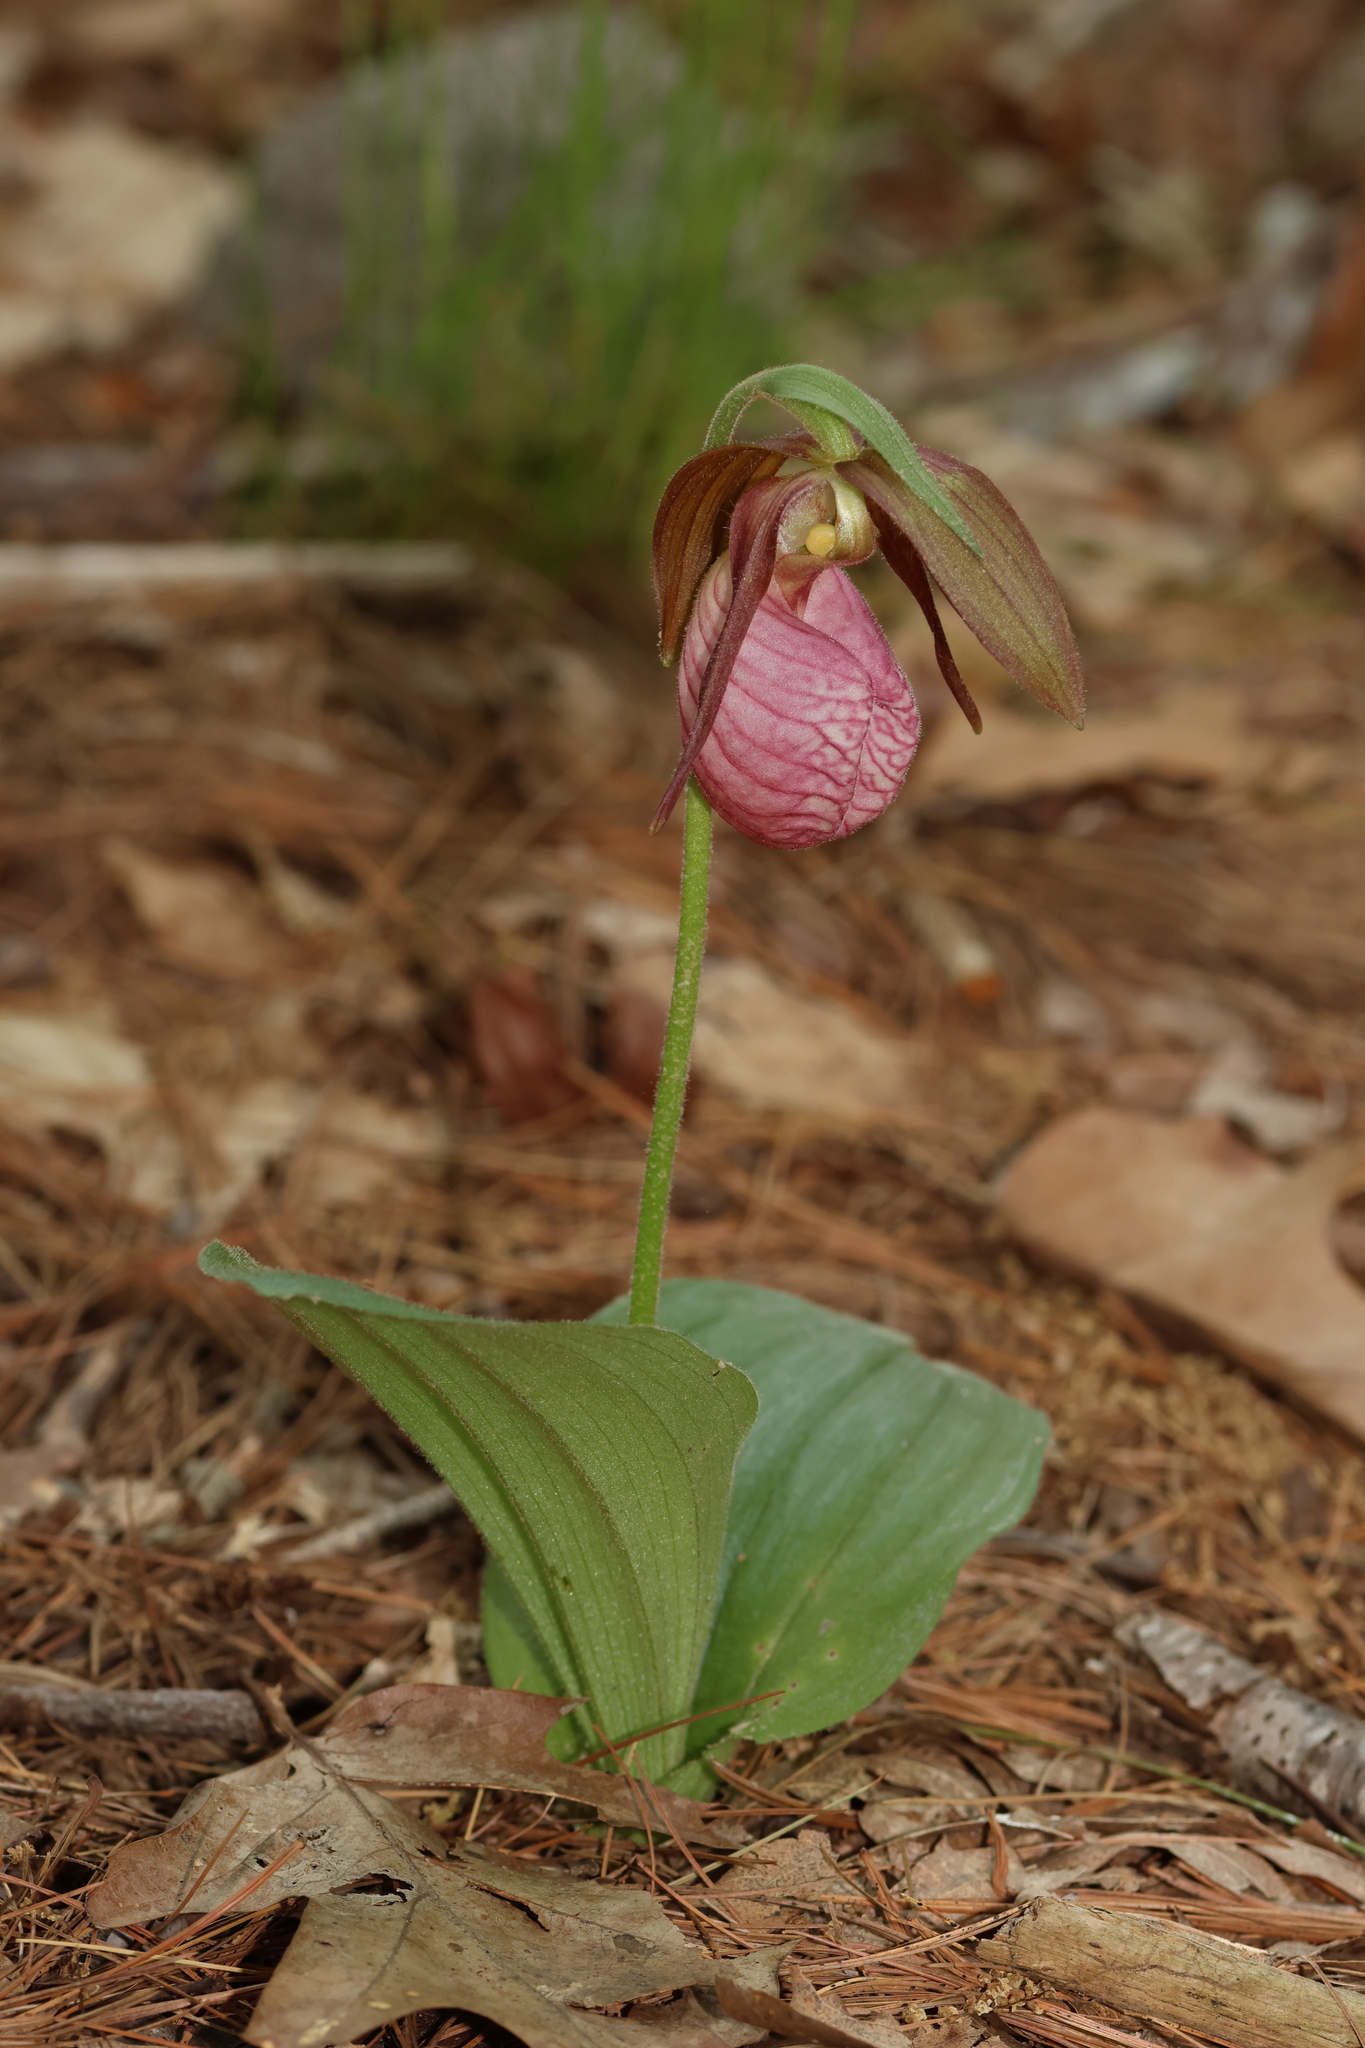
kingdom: Plantae
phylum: Tracheophyta
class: Liliopsida
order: Asparagales
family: Orchidaceae
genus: Cypripedium
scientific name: Cypripedium acaule
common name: Pink lady's-slipper
